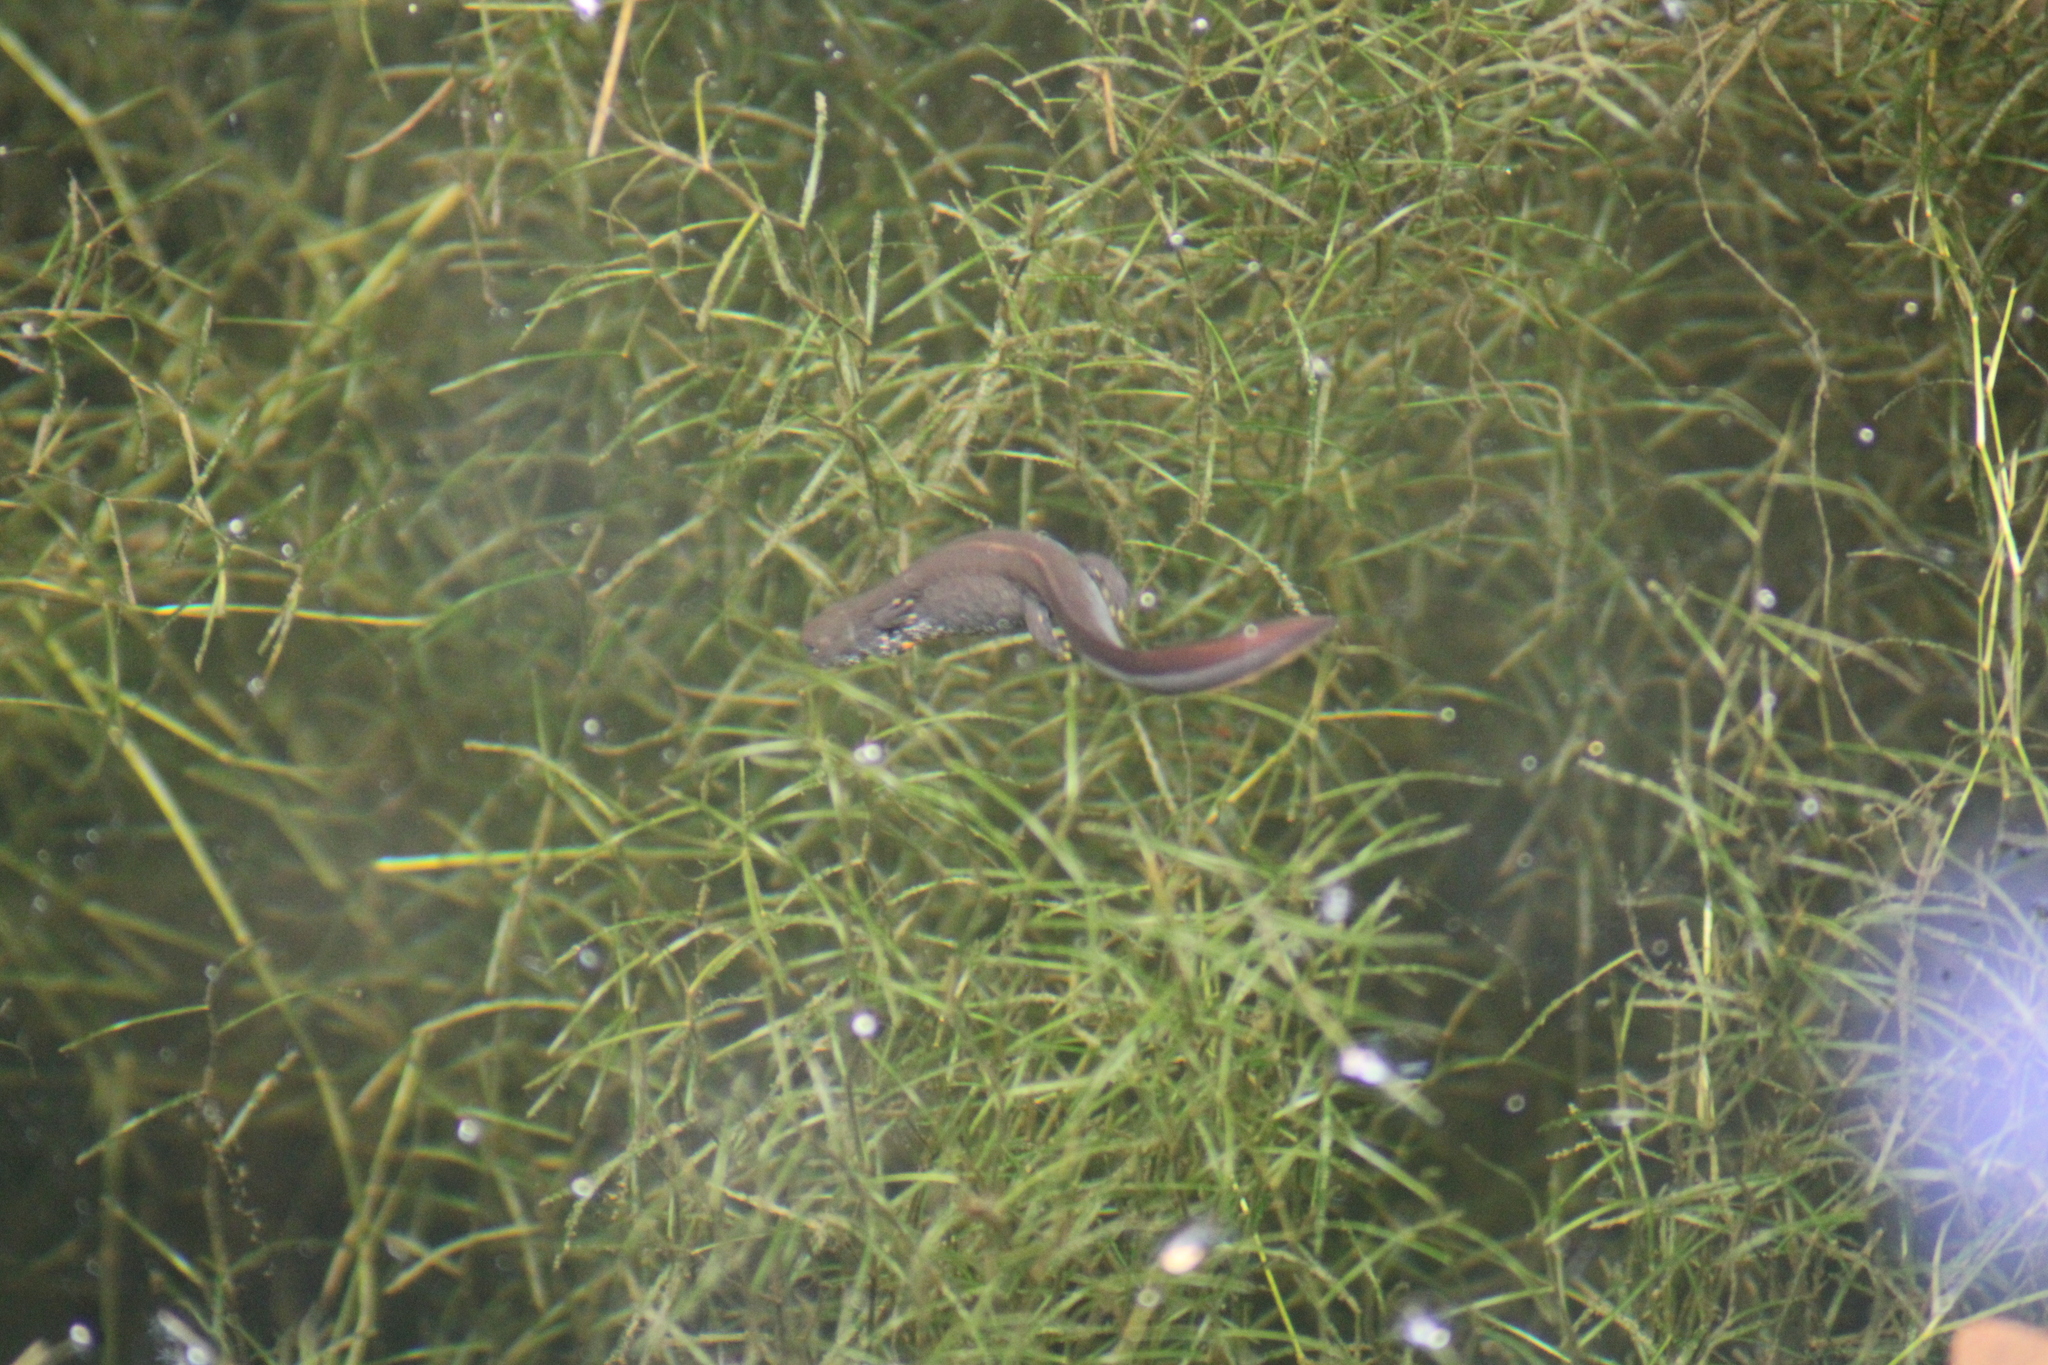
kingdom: Animalia
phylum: Chordata
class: Amphibia
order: Caudata
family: Salamandridae
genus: Triturus
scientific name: Triturus dobrogicus
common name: Danube crested newt
